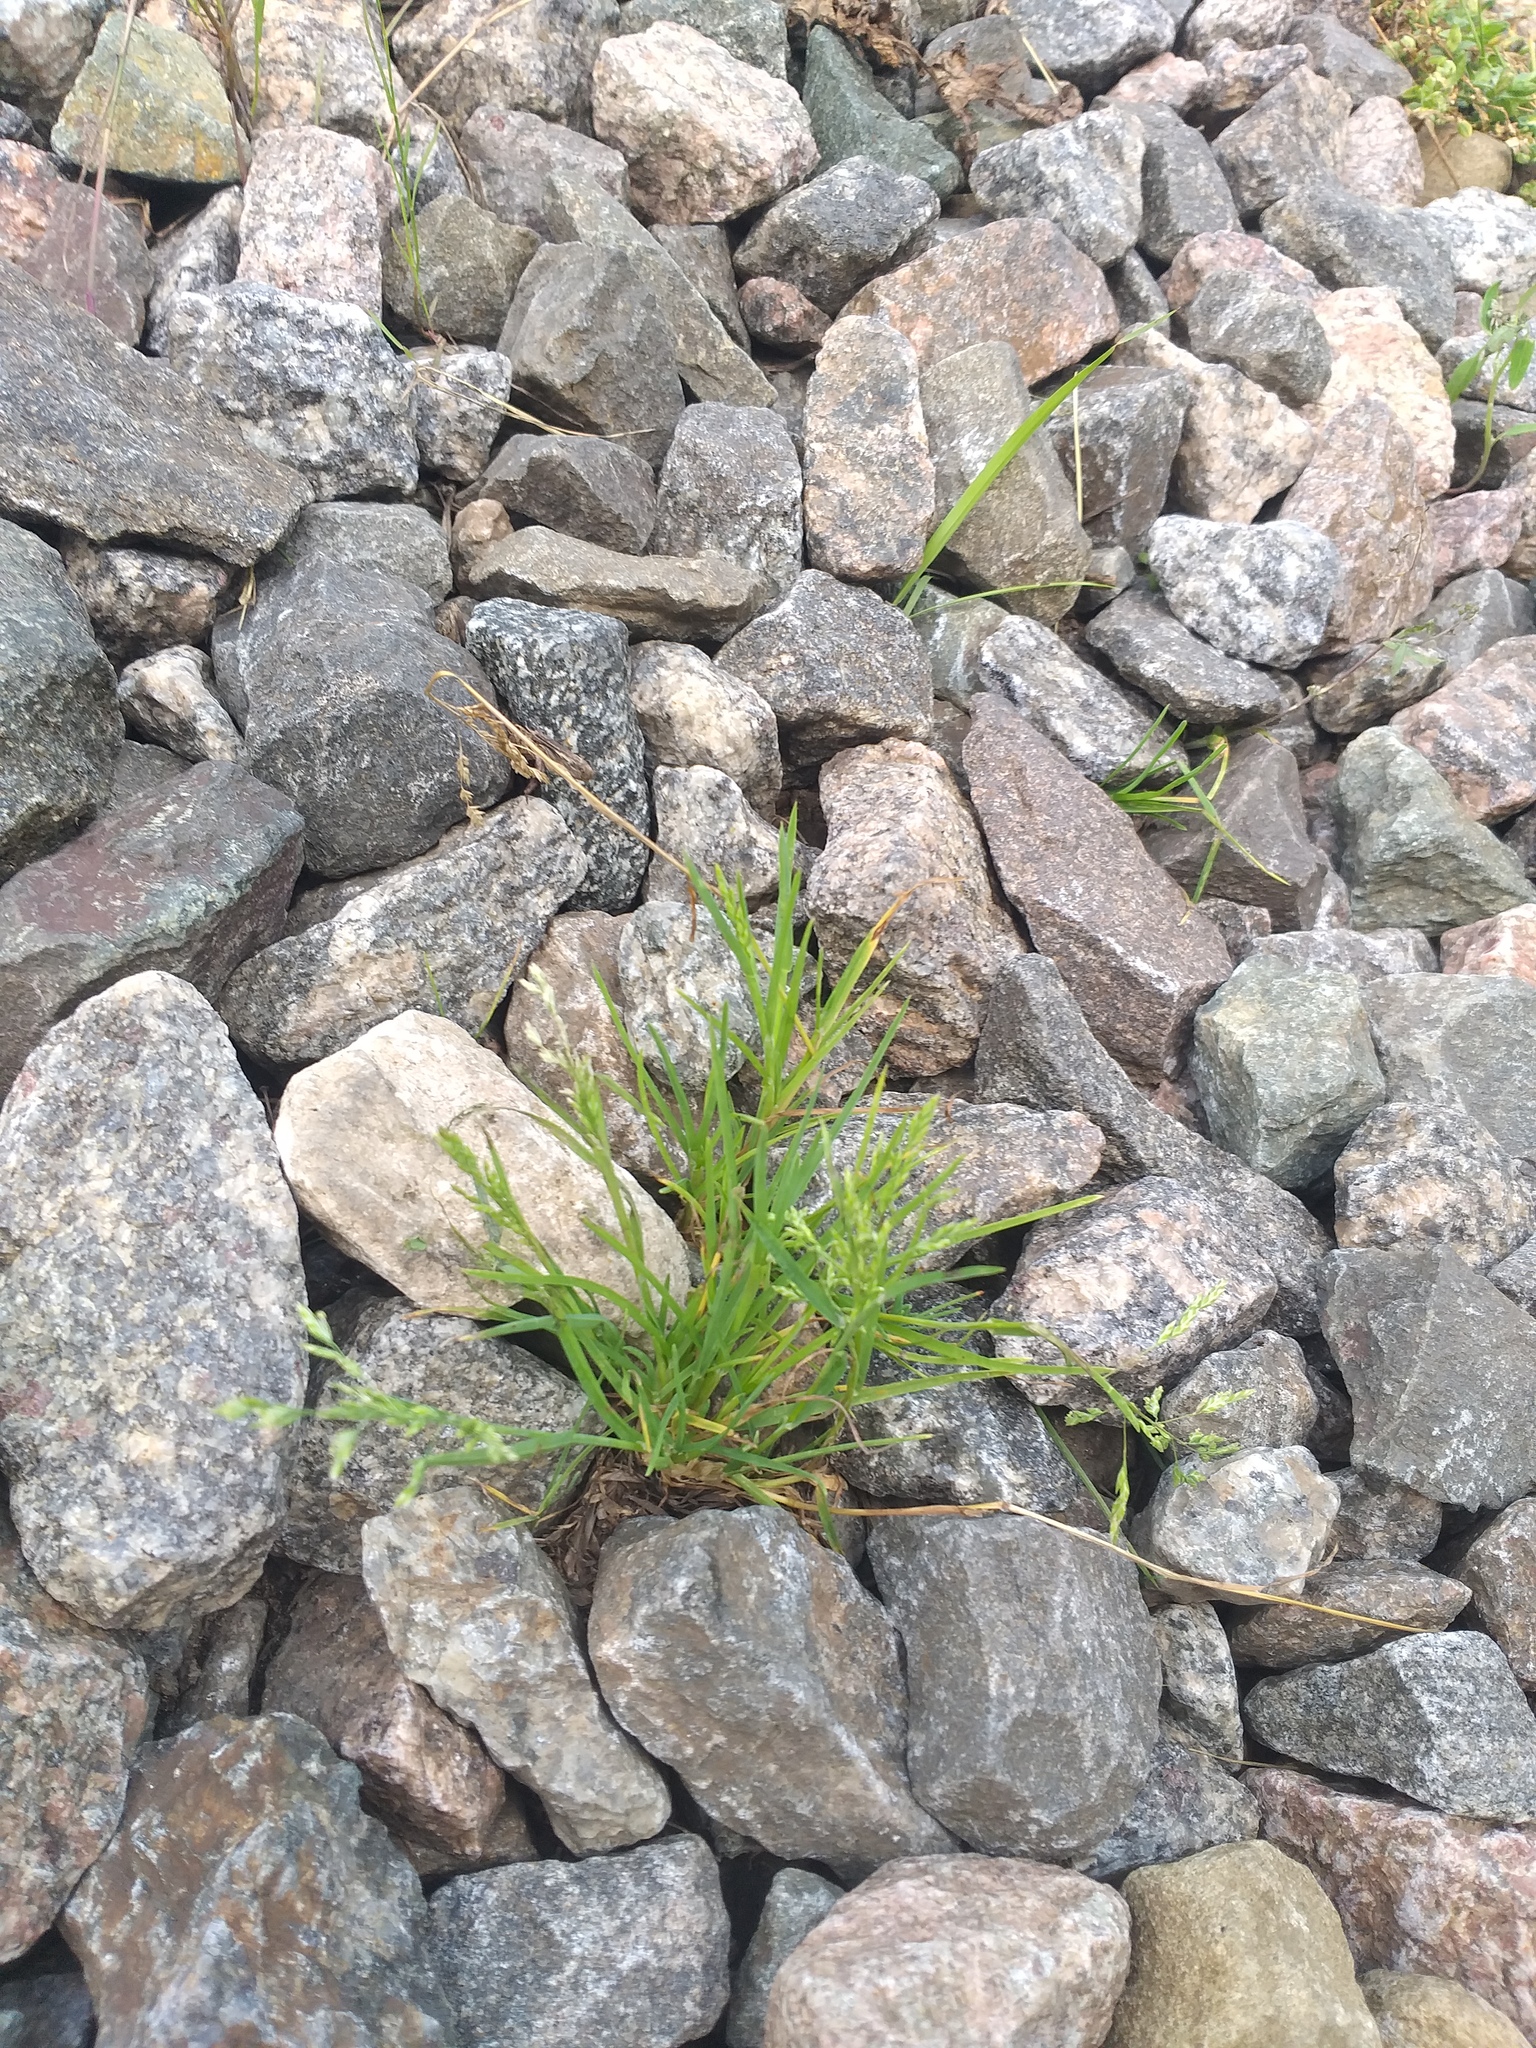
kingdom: Plantae
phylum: Tracheophyta
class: Liliopsida
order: Poales
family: Poaceae
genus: Poa
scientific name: Poa annua
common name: Annual bluegrass
